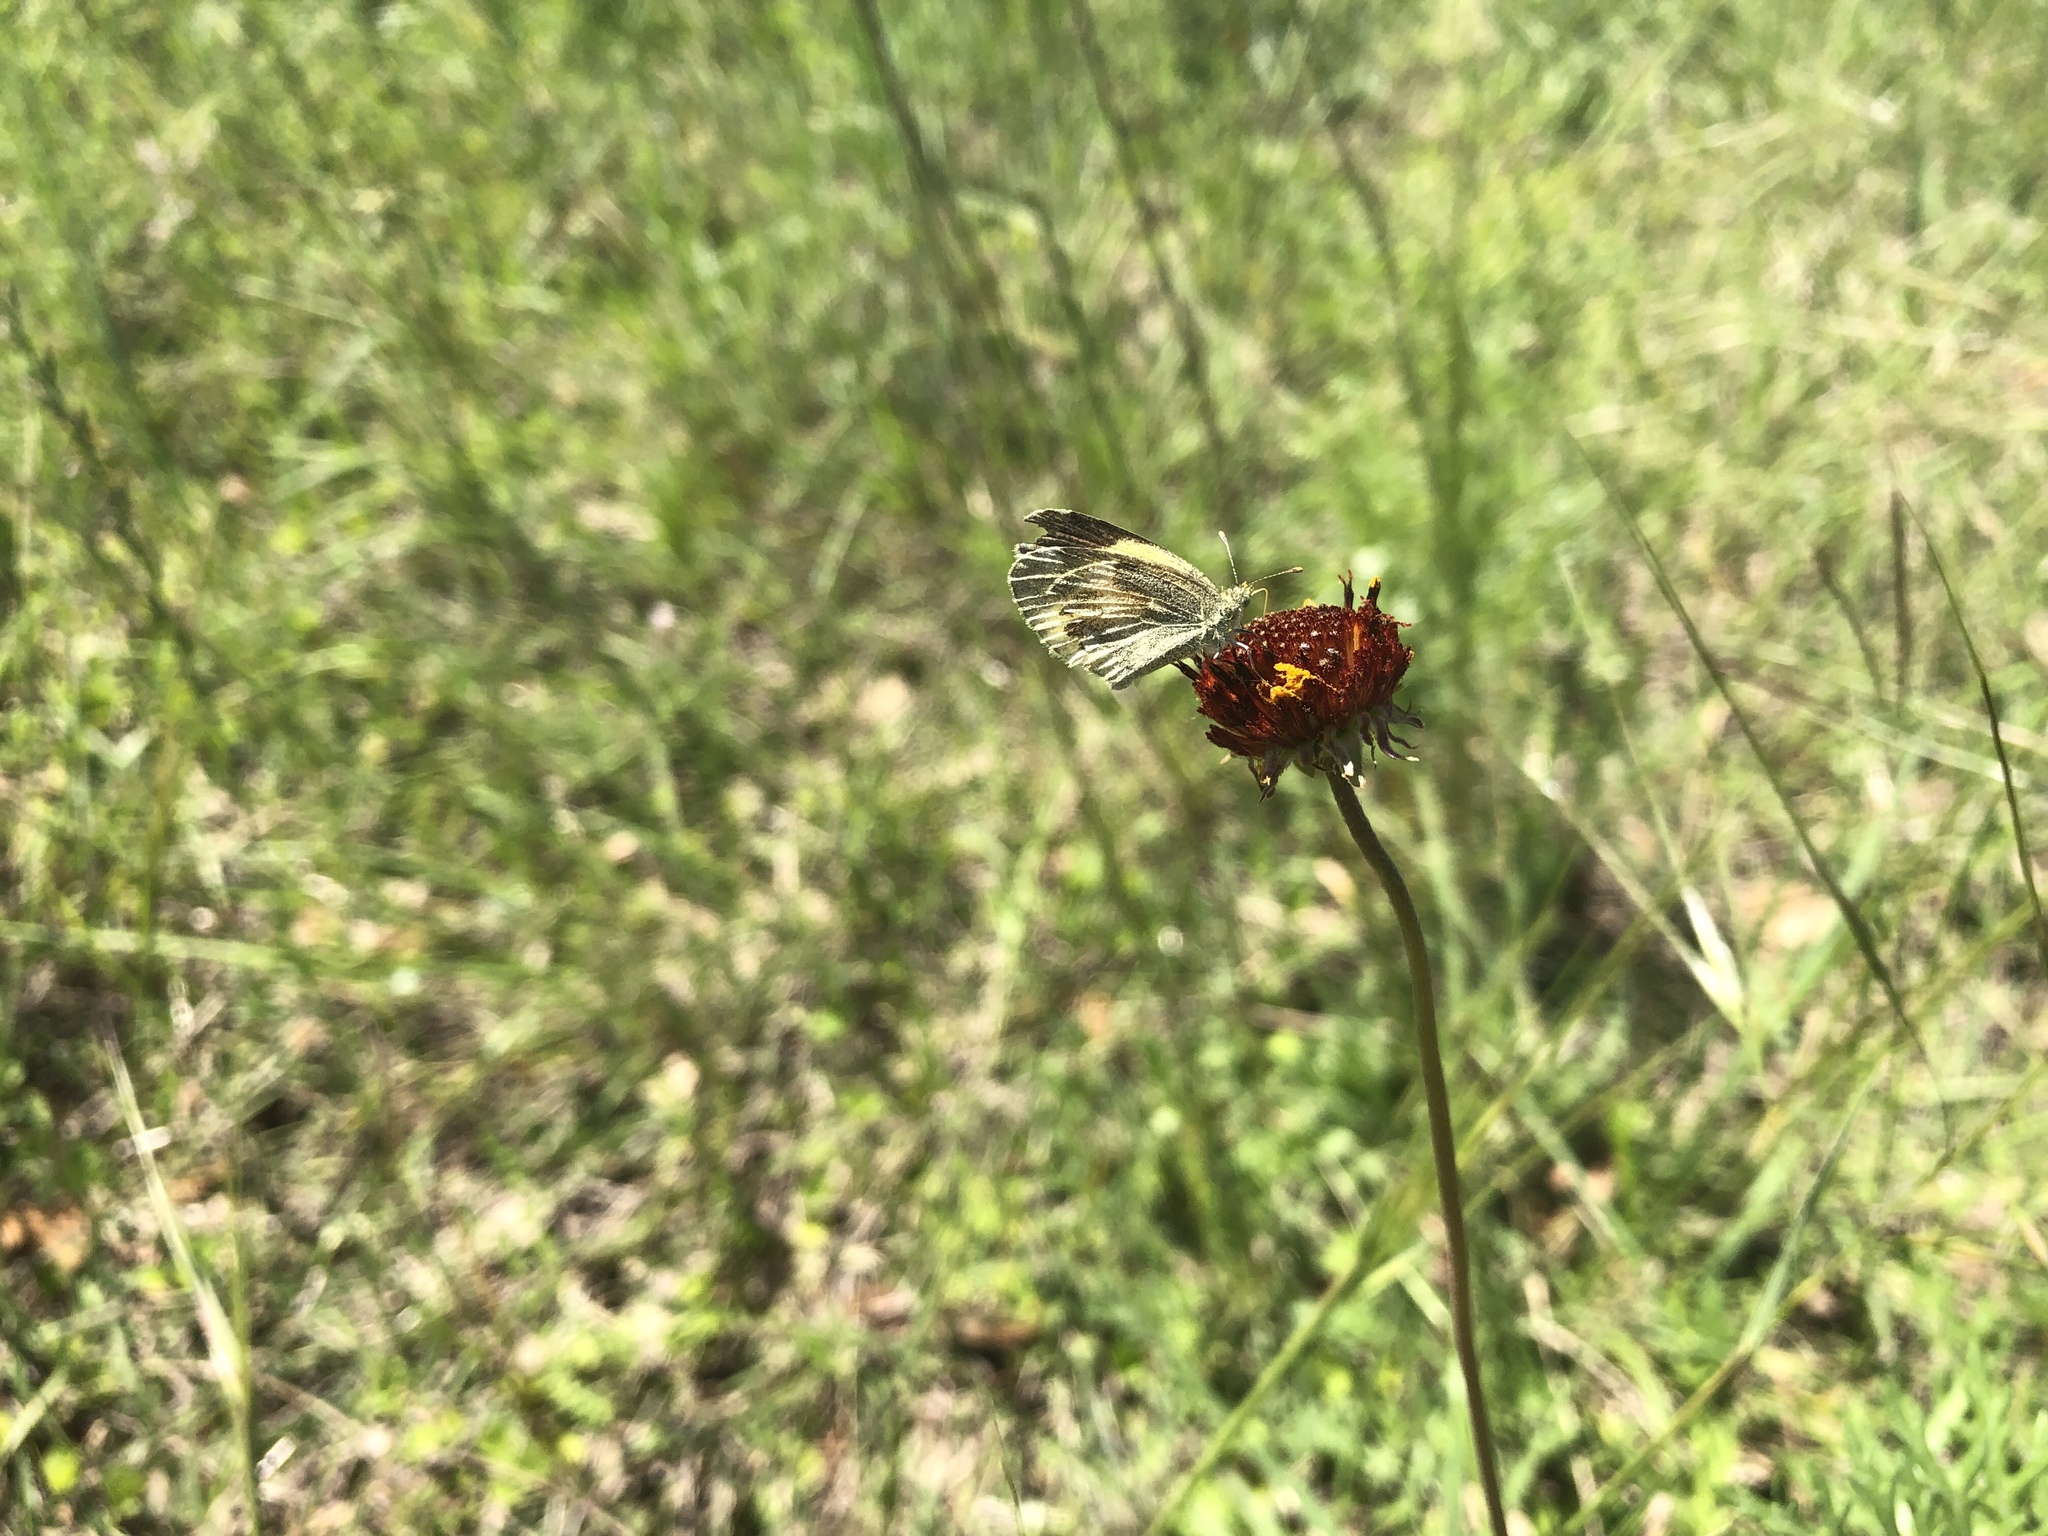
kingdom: Animalia
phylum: Arthropoda
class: Insecta
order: Lepidoptera
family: Pieridae
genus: Nathalis
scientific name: Nathalis iole
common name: Dainty sulphur
